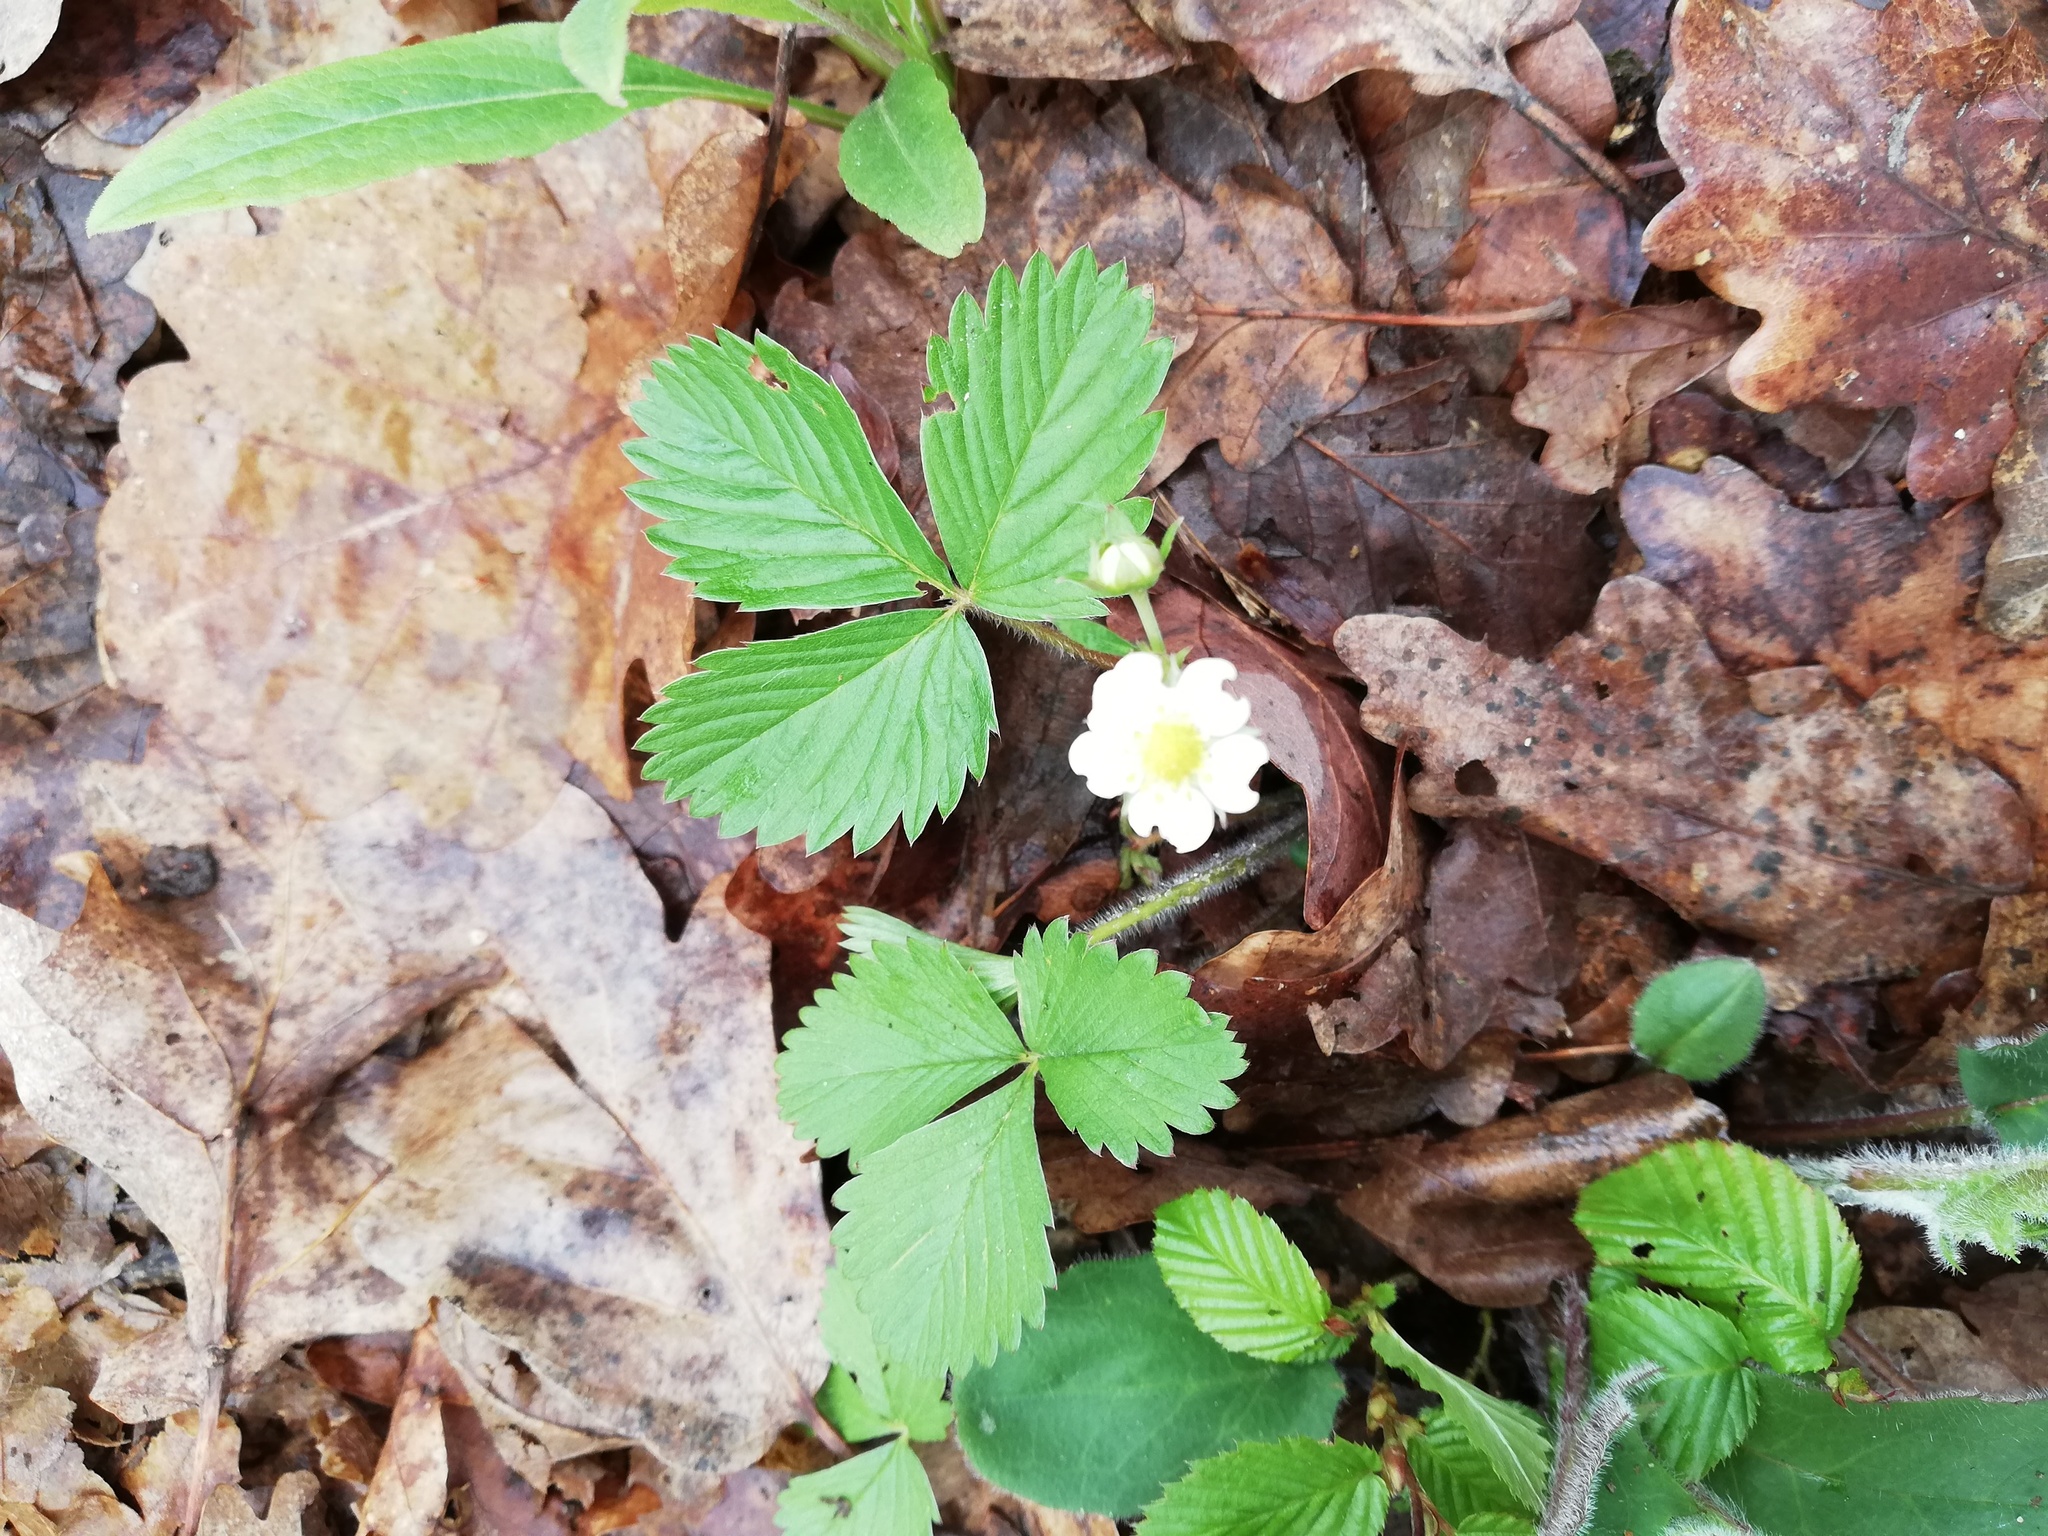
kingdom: Plantae
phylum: Tracheophyta
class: Magnoliopsida
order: Rosales
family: Rosaceae
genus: Fragaria
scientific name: Fragaria vesca
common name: Wild strawberry
